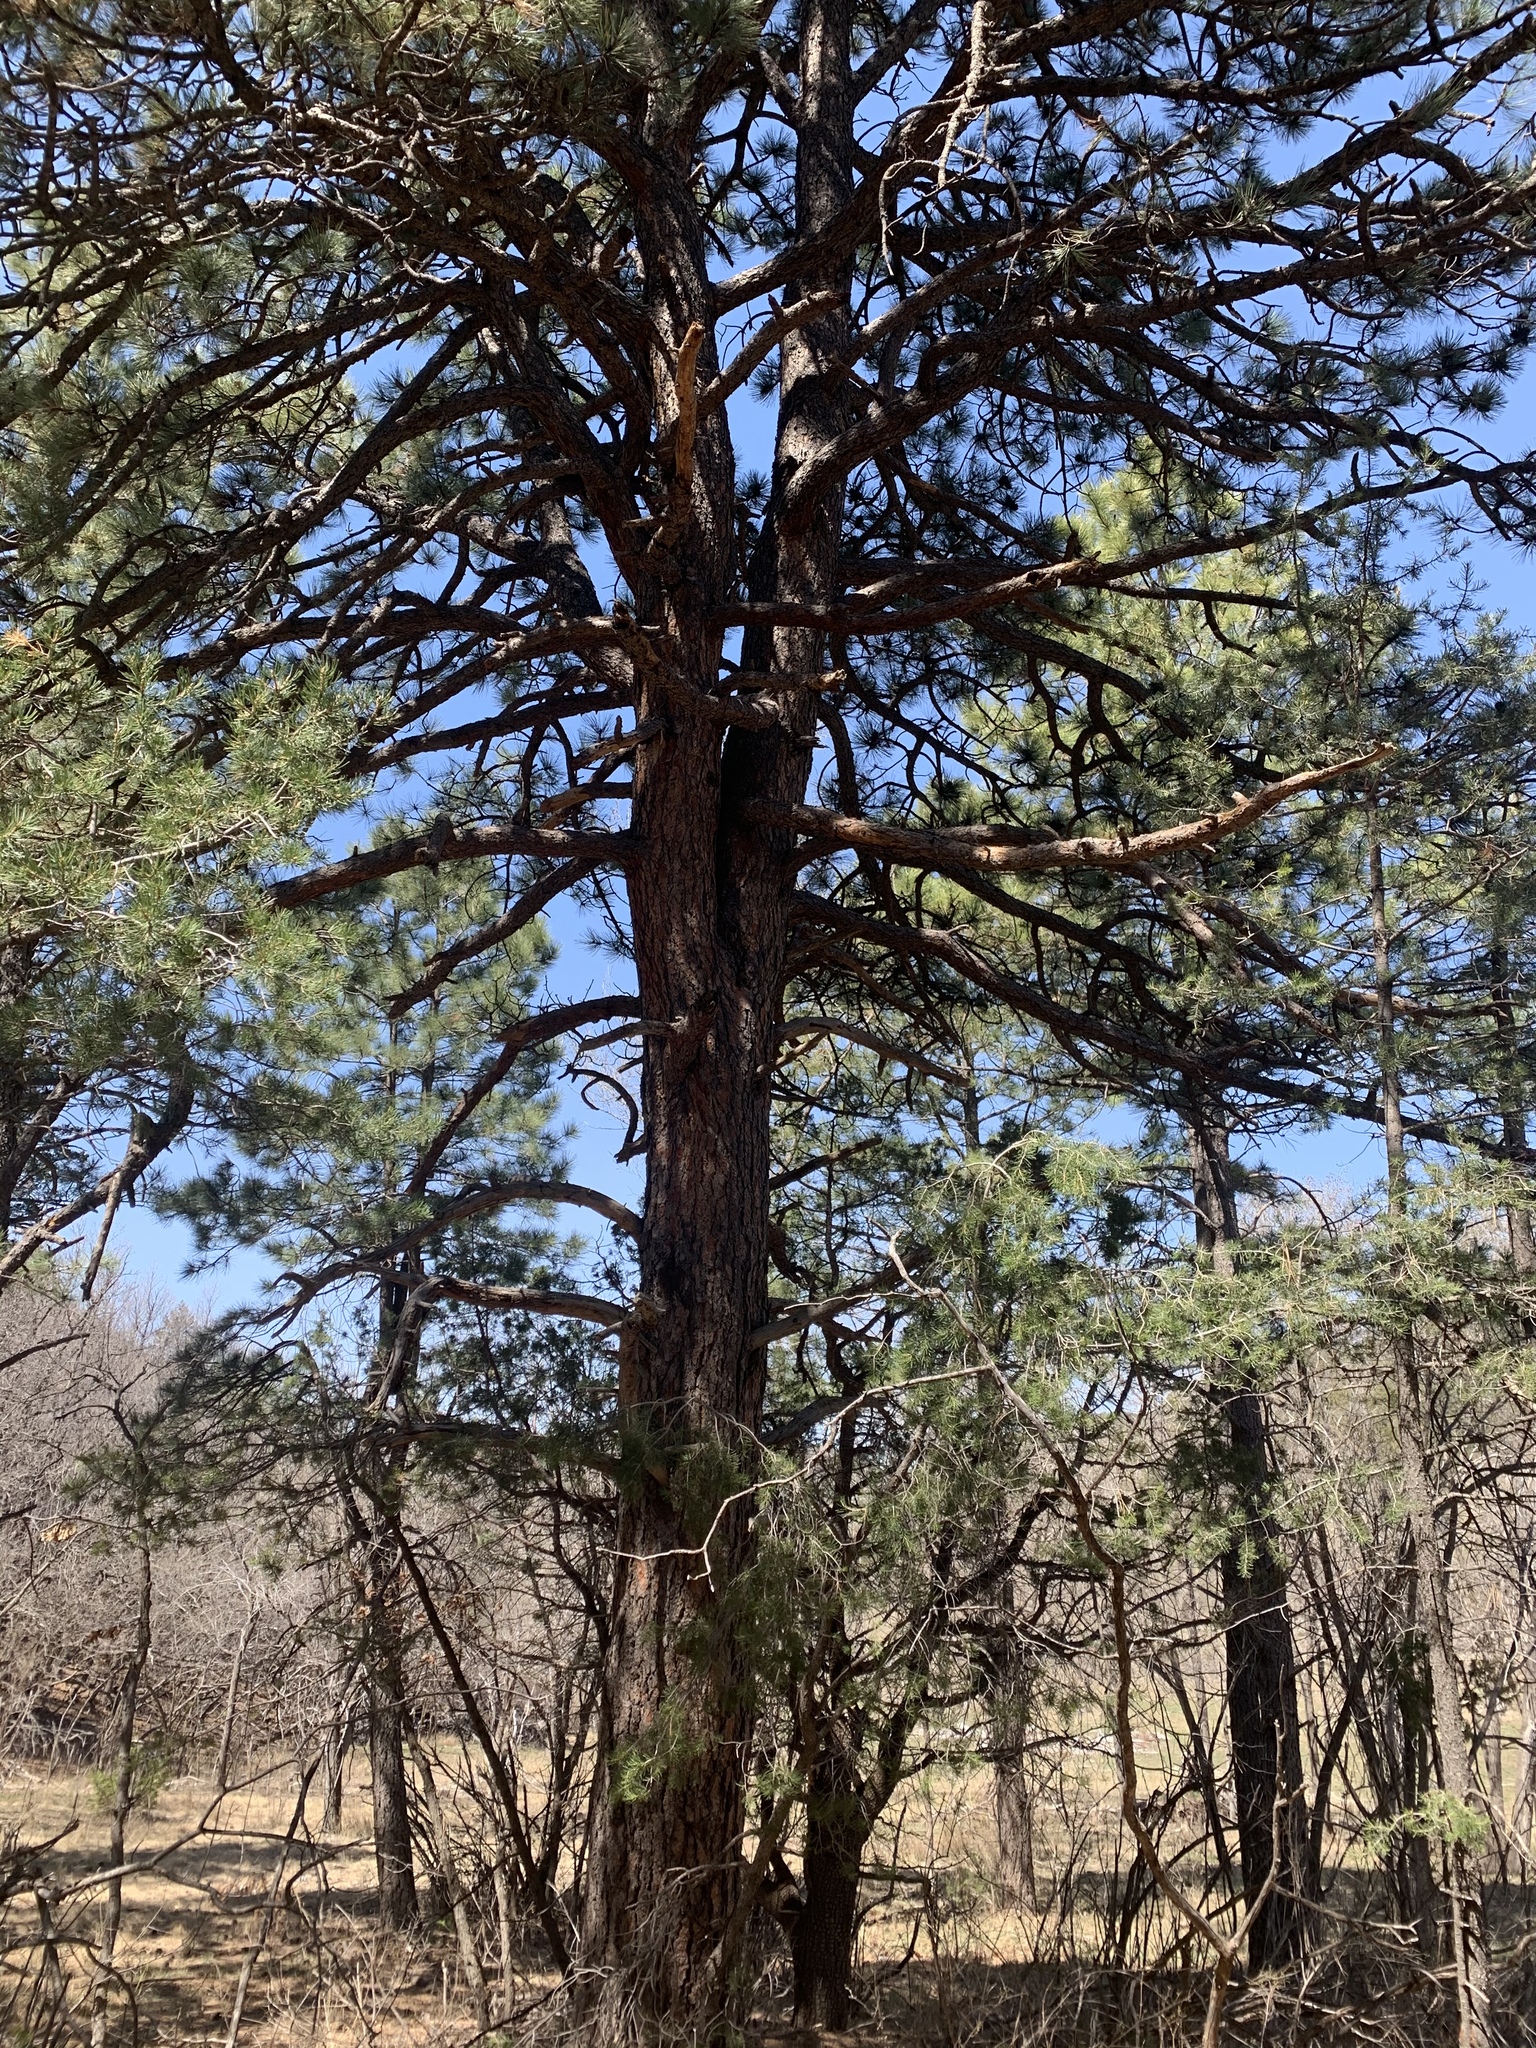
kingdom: Plantae
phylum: Tracheophyta
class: Pinopsida
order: Pinales
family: Pinaceae
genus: Pinus
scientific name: Pinus ponderosa
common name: Western yellow-pine
